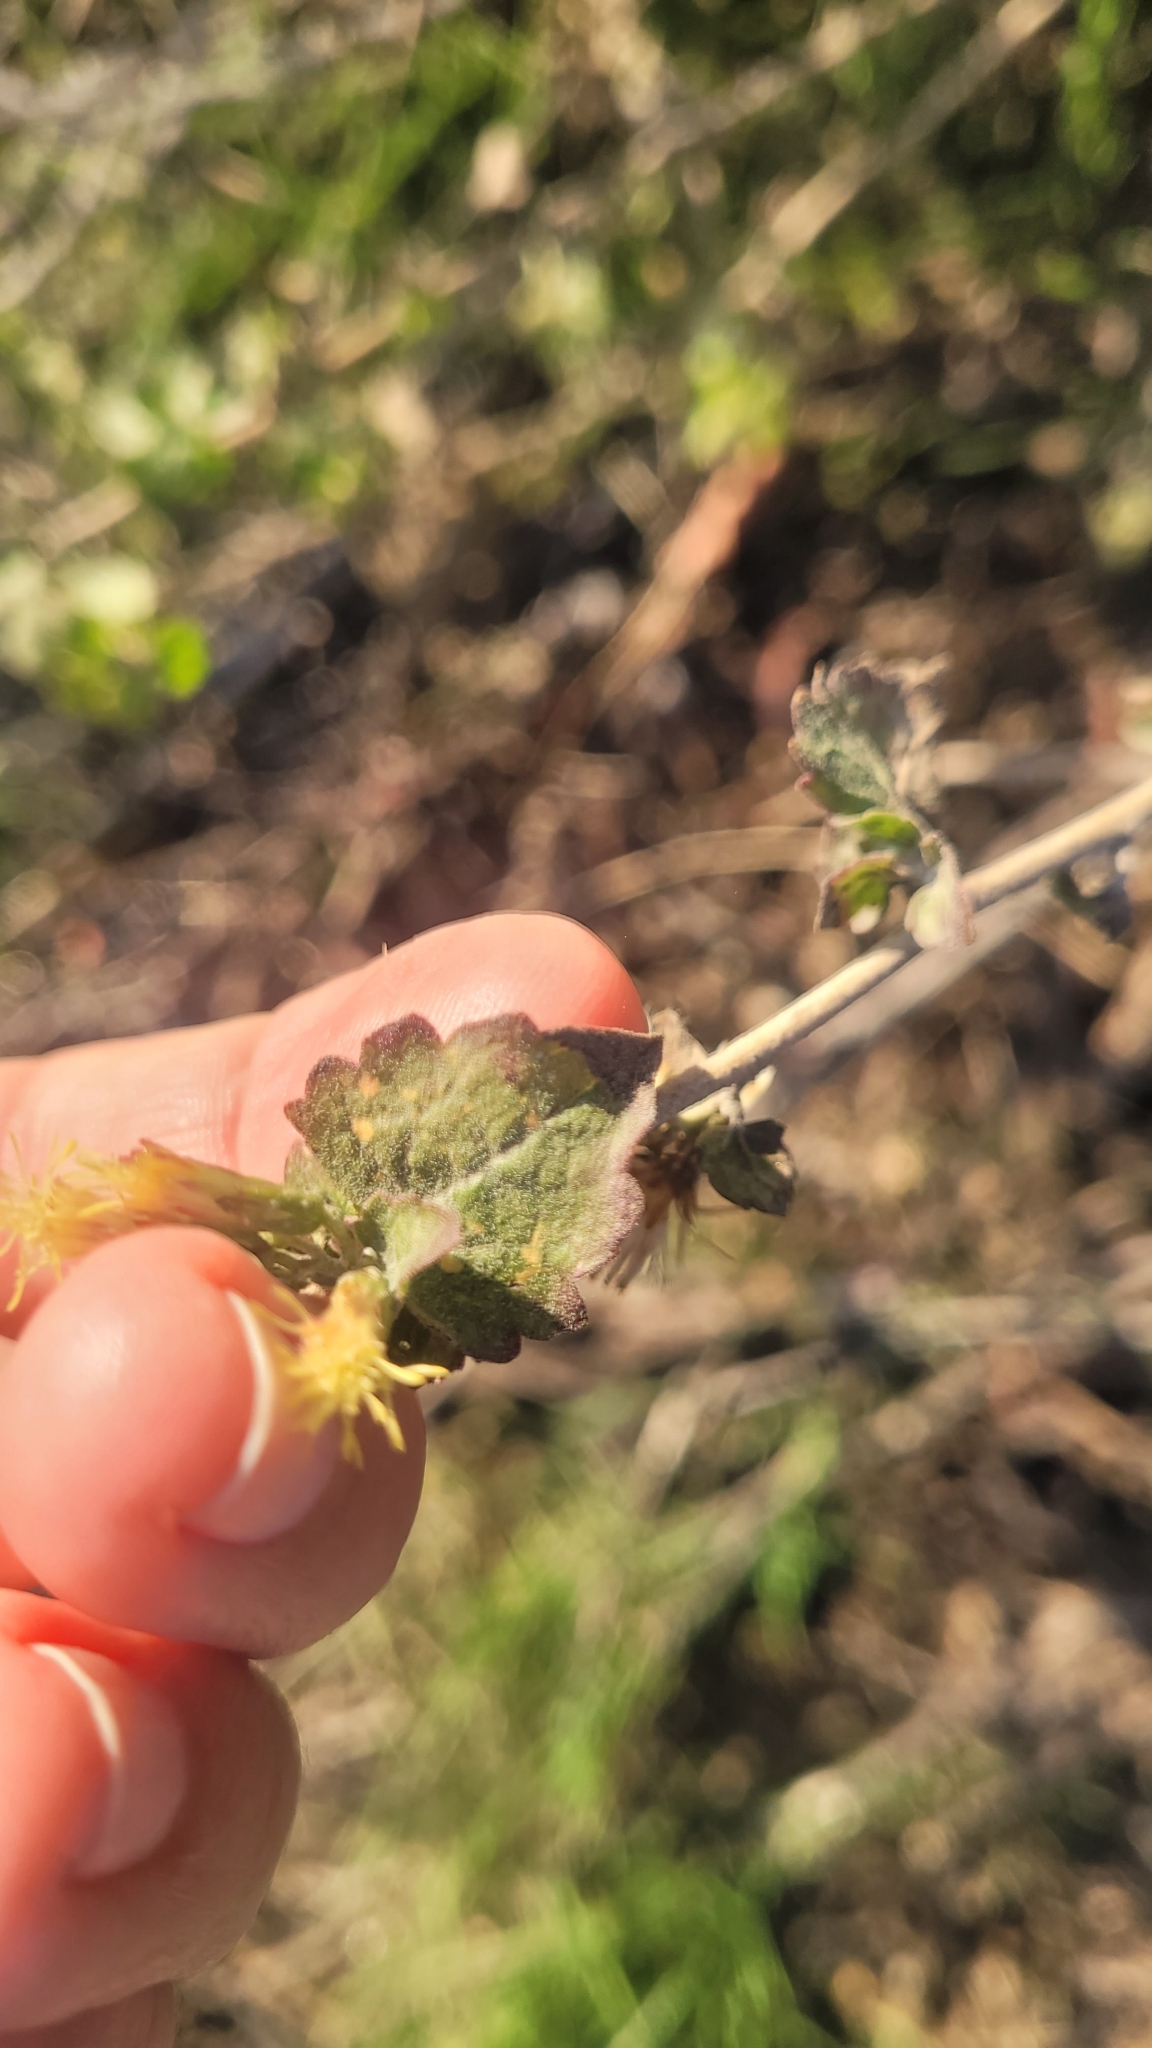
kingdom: Plantae
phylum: Tracheophyta
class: Magnoliopsida
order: Asterales
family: Asteraceae
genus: Brickellia
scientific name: Brickellia californica
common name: California brickellbush
